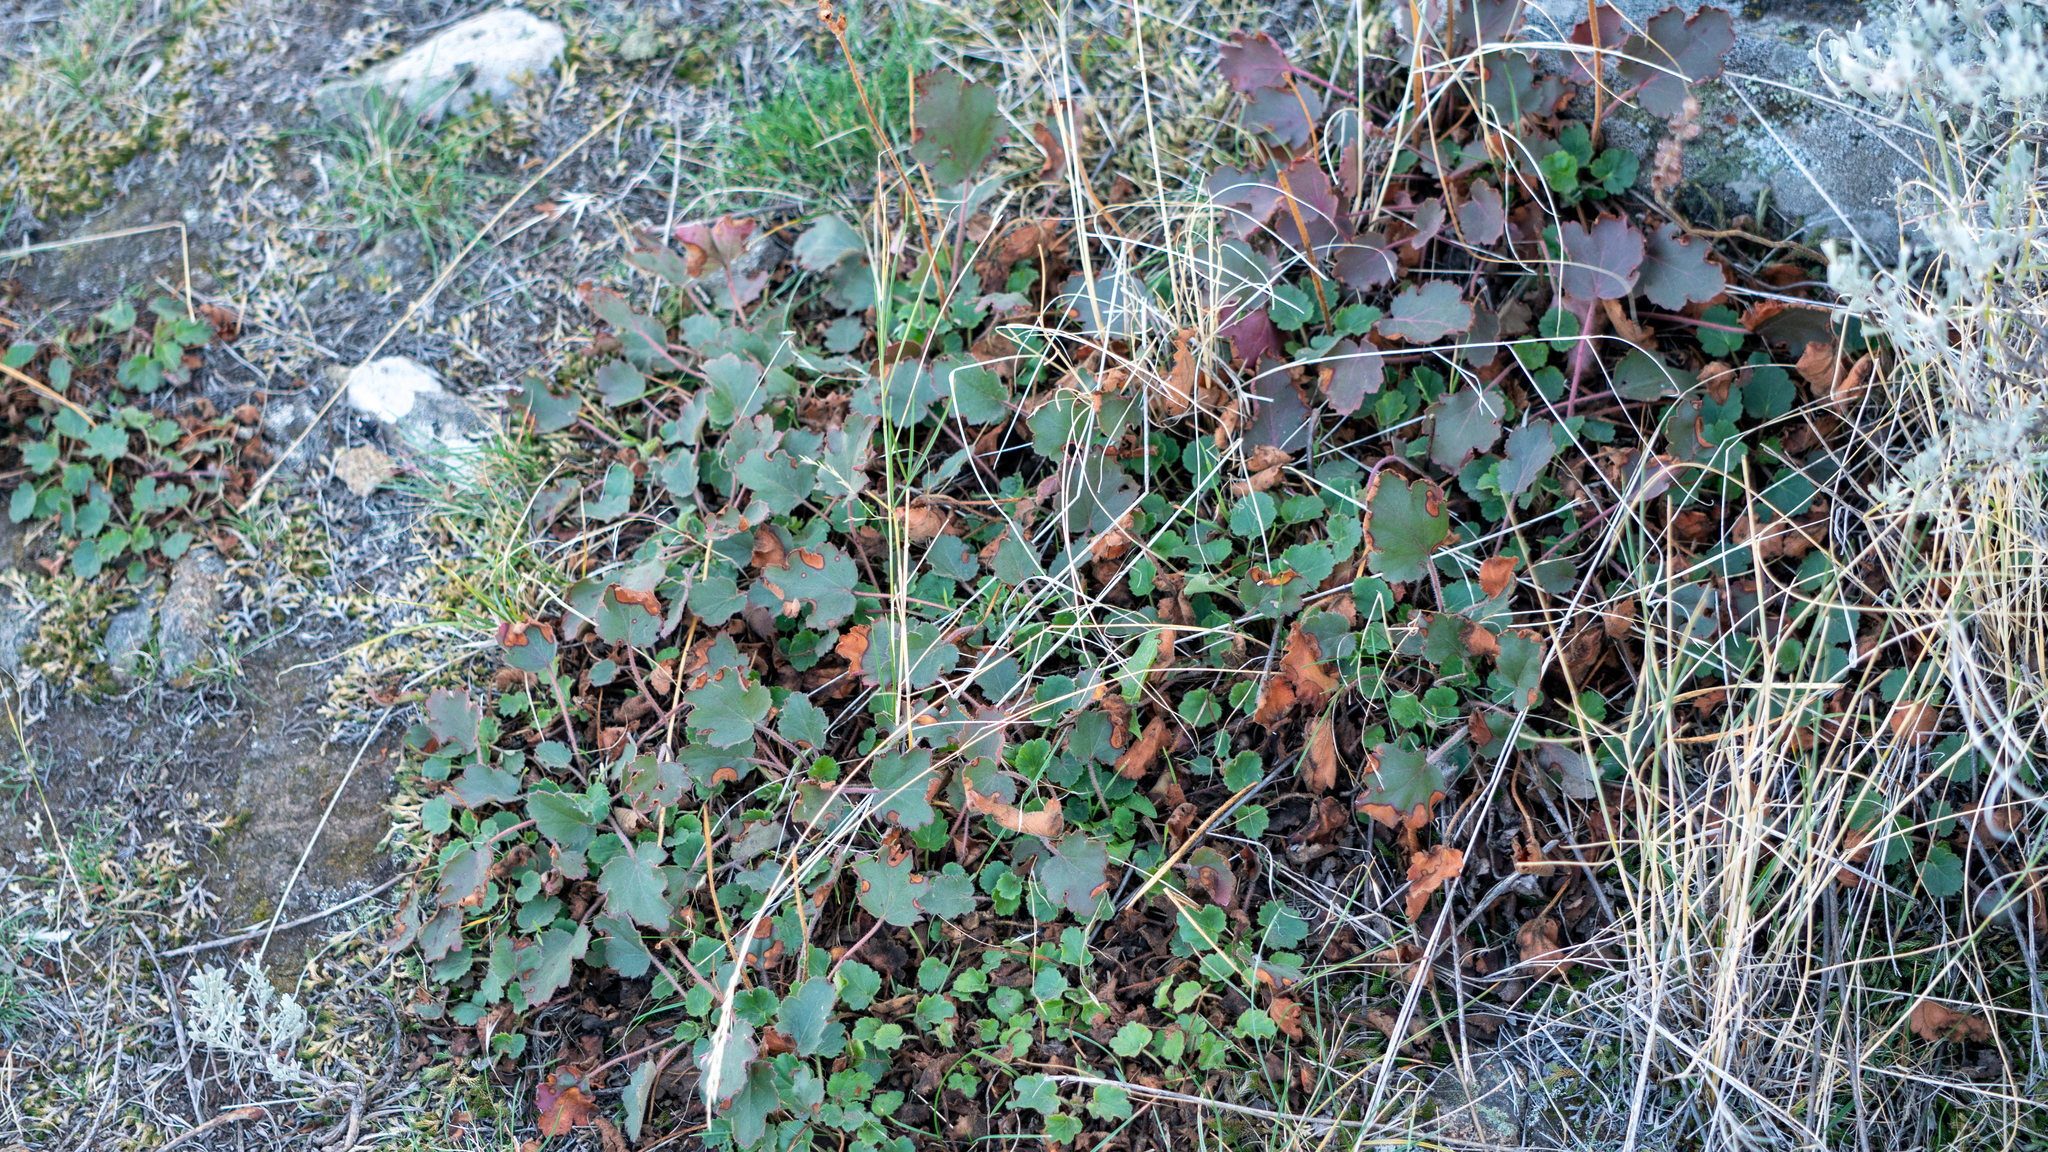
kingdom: Plantae
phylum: Tracheophyta
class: Magnoliopsida
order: Saxifragales
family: Saxifragaceae
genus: Heuchera
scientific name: Heuchera cylindrica
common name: Mat alumroot
